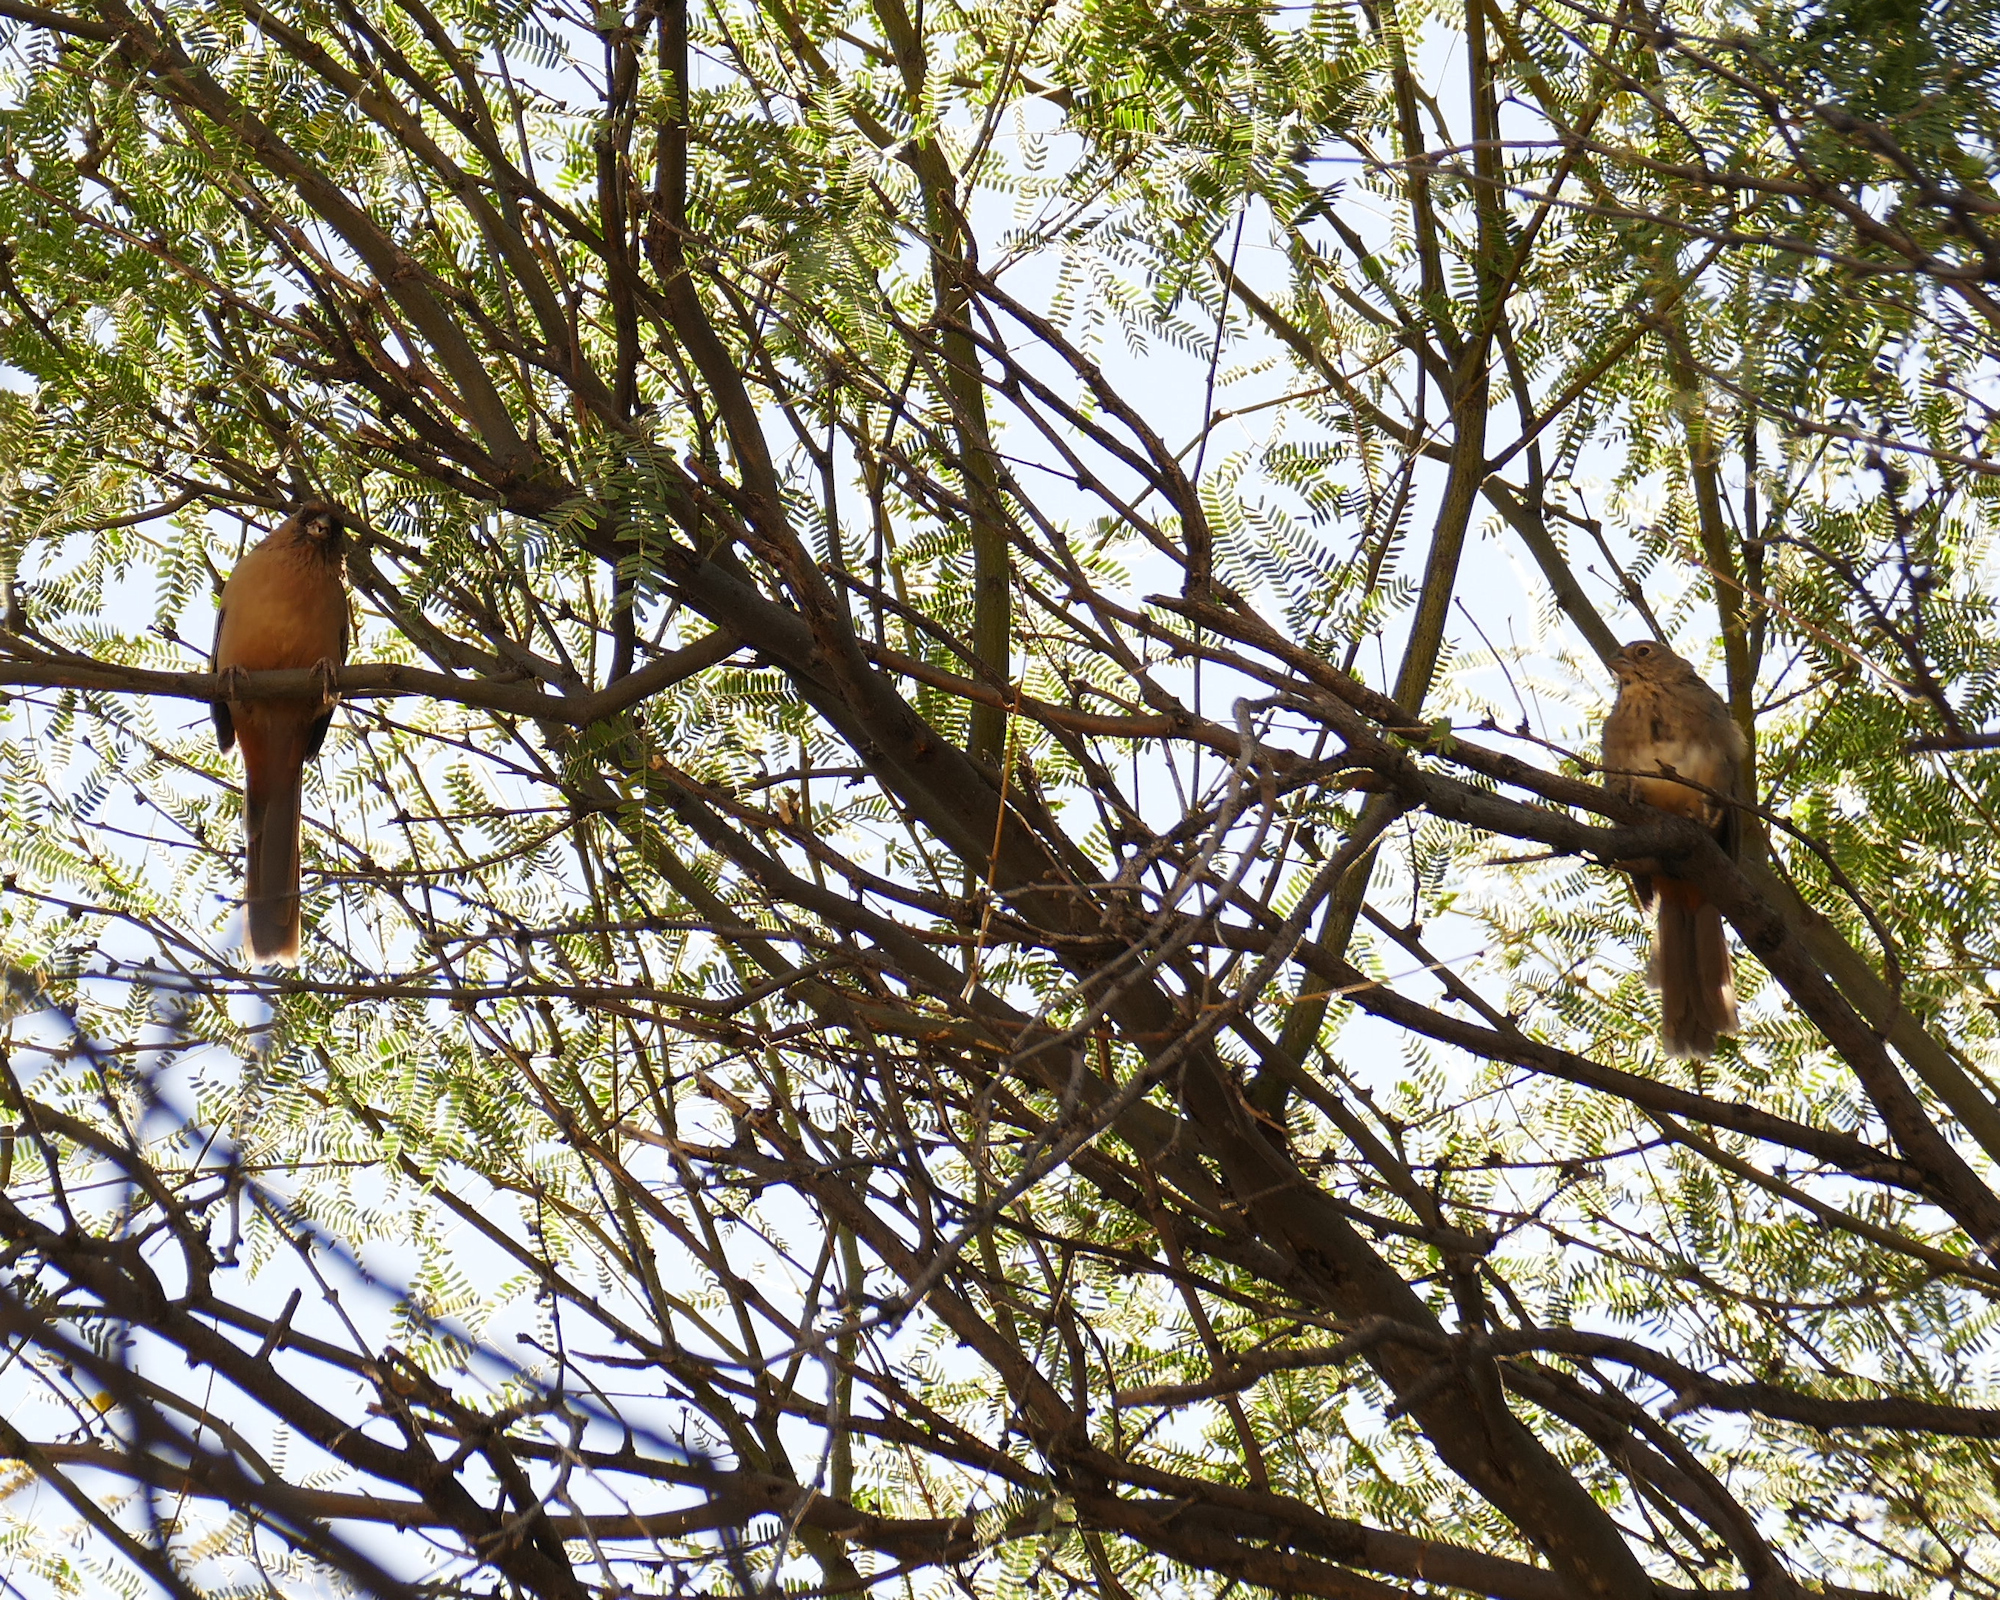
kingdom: Animalia
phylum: Chordata
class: Aves
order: Passeriformes
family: Passerellidae
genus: Melozone
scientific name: Melozone aberti
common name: Abert's towhee
